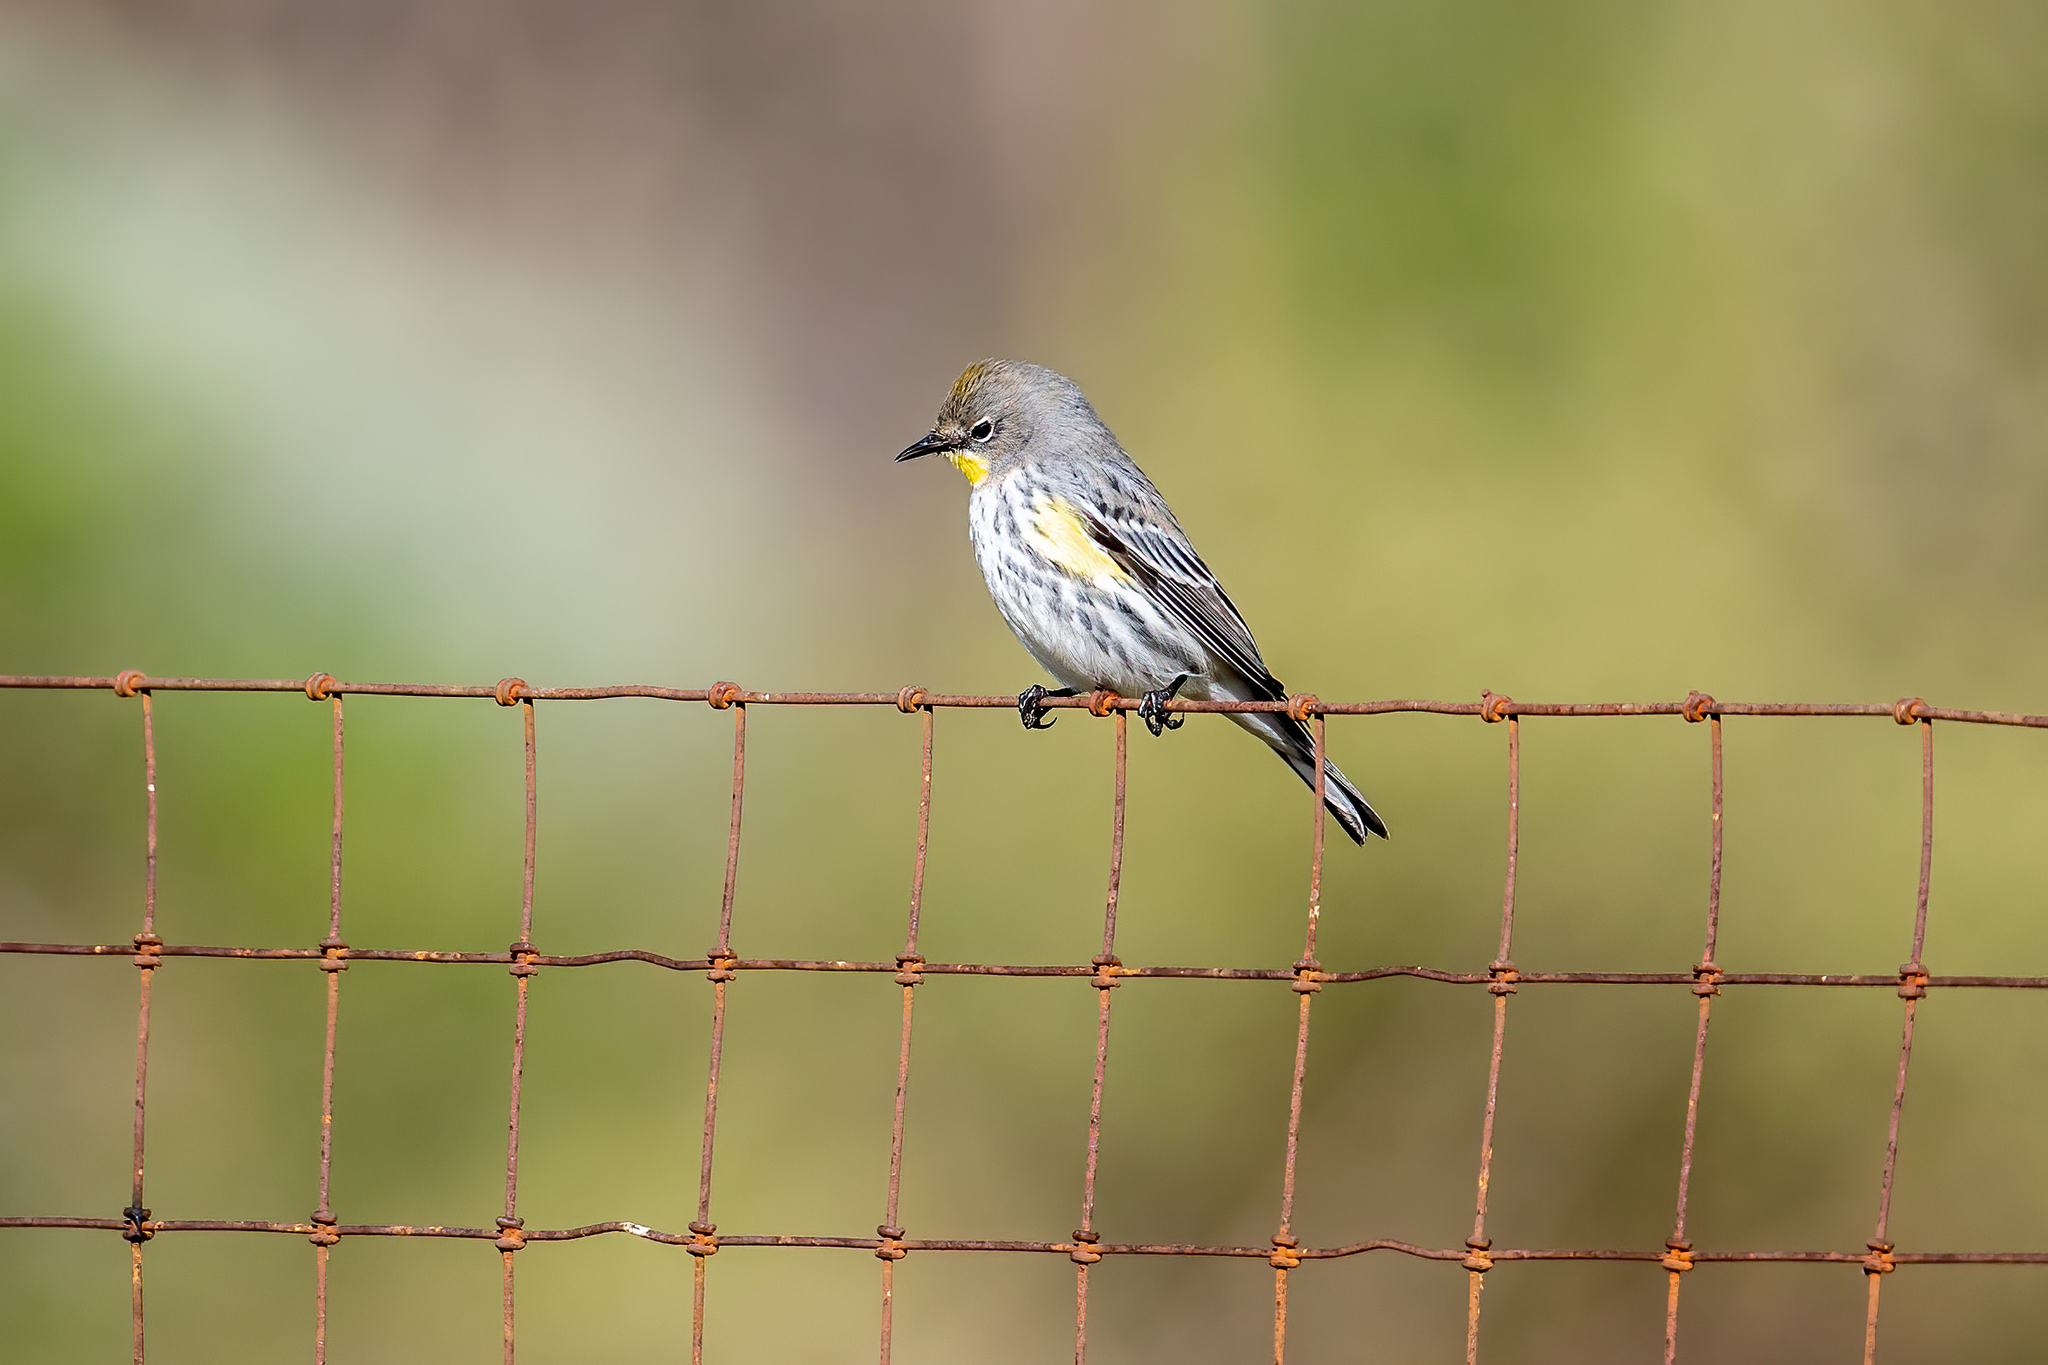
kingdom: Animalia
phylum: Chordata
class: Aves
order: Passeriformes
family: Parulidae
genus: Setophaga
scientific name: Setophaga coronata
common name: Myrtle warbler
